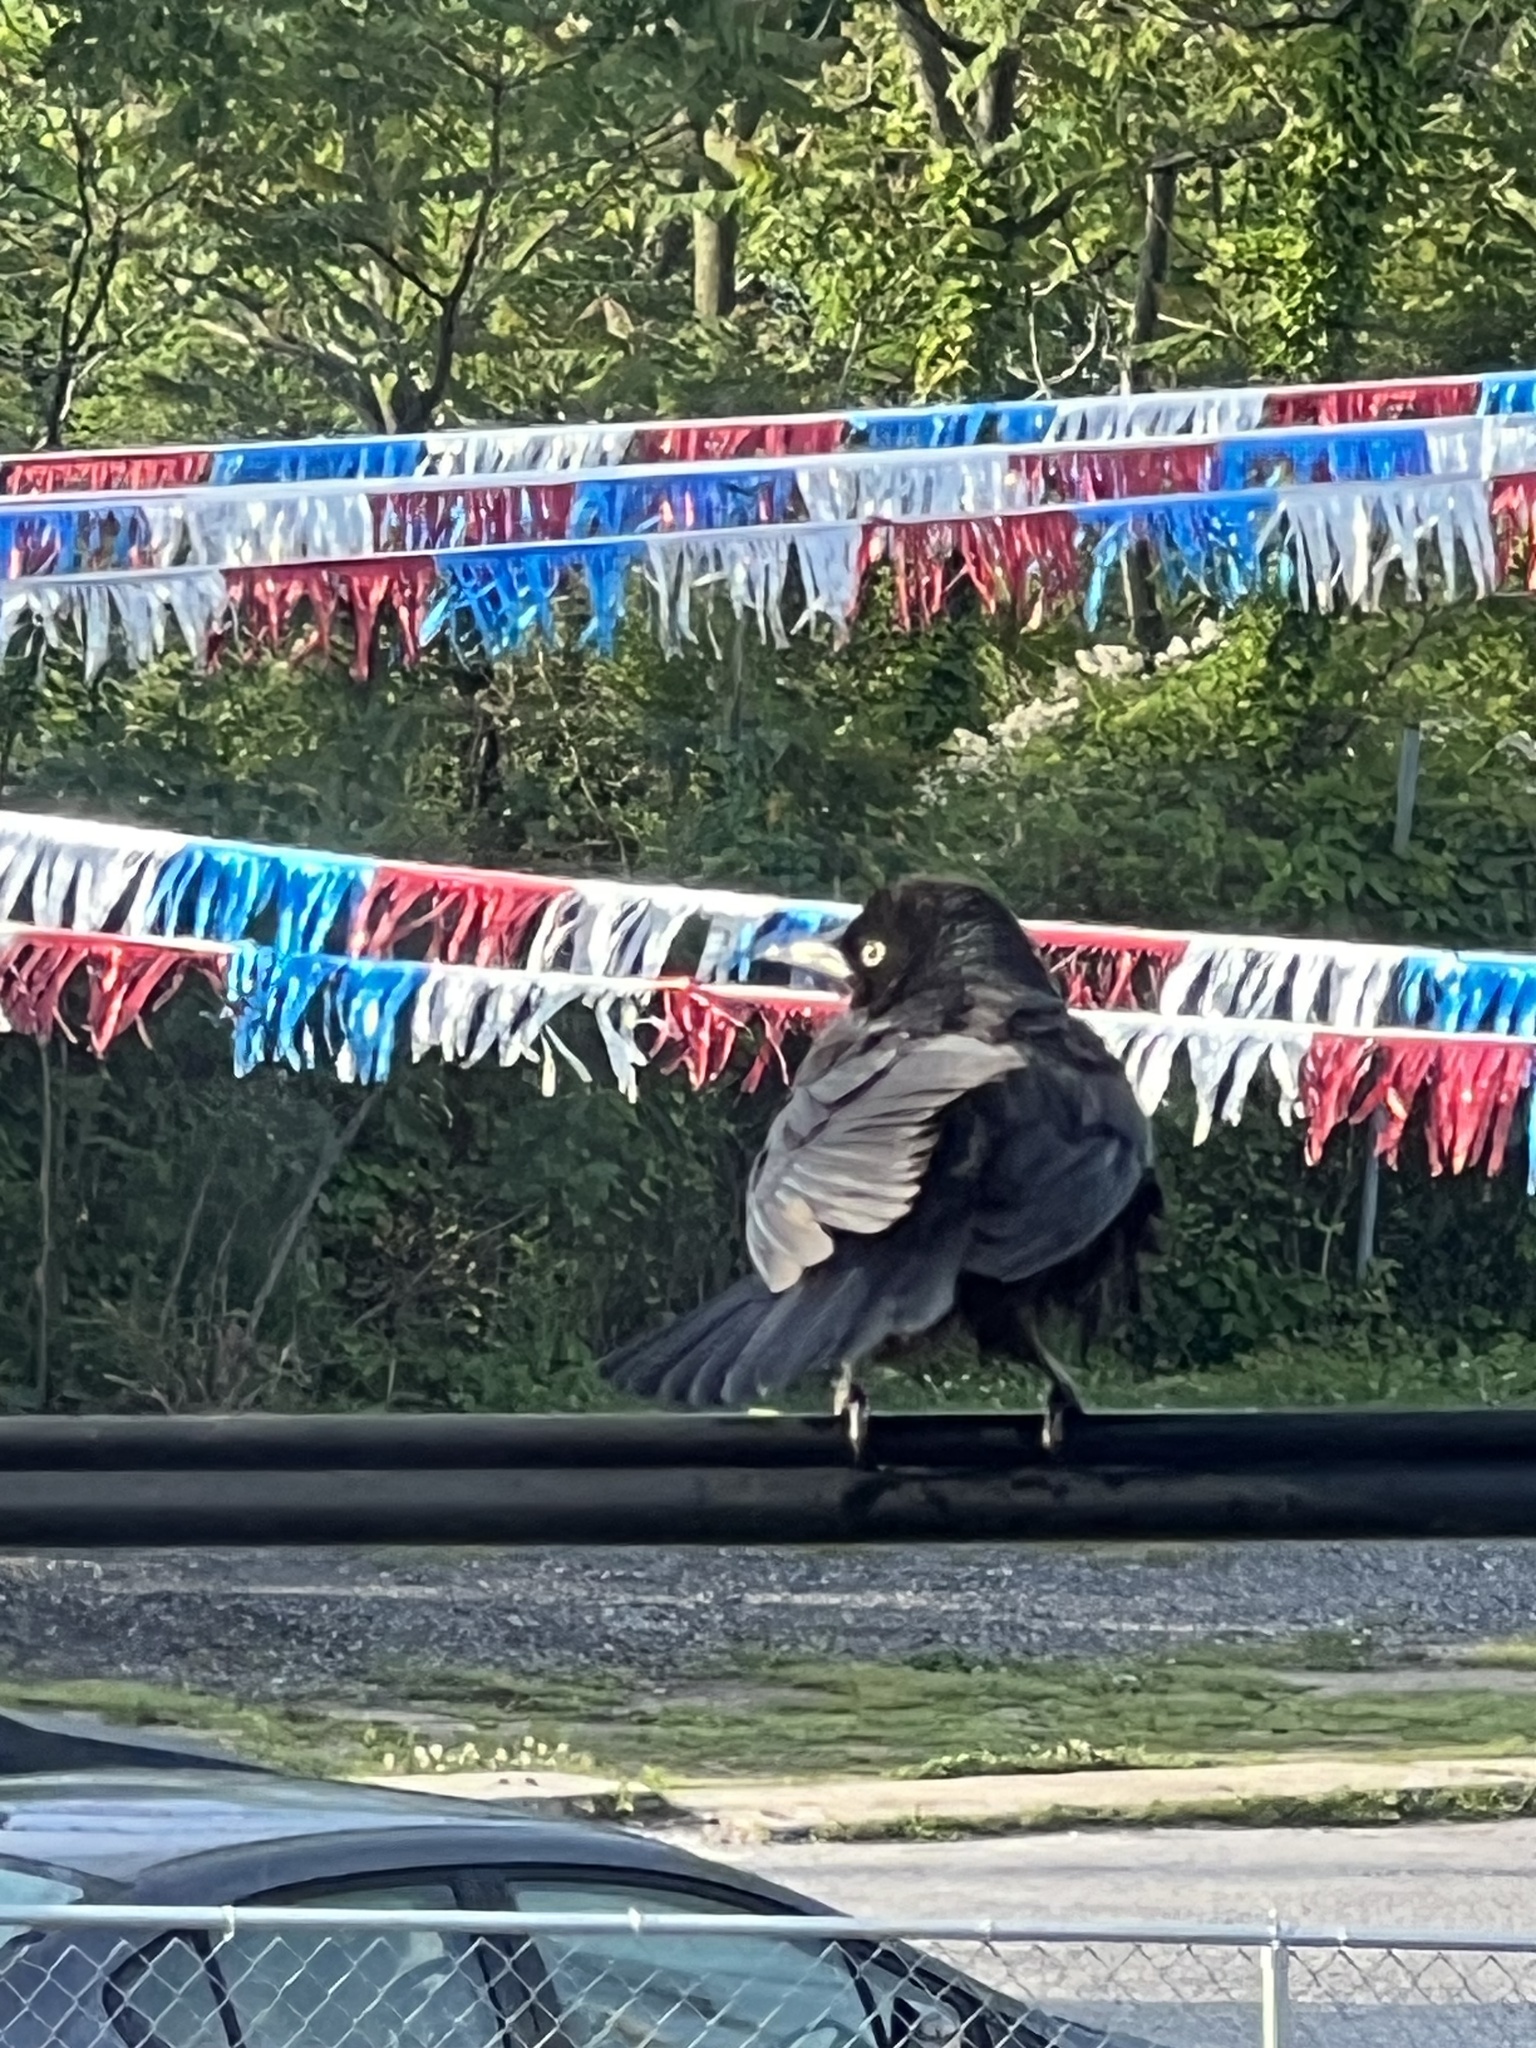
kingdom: Animalia
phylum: Chordata
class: Aves
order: Passeriformes
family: Icteridae
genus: Quiscalus
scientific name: Quiscalus quiscula
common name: Common grackle
